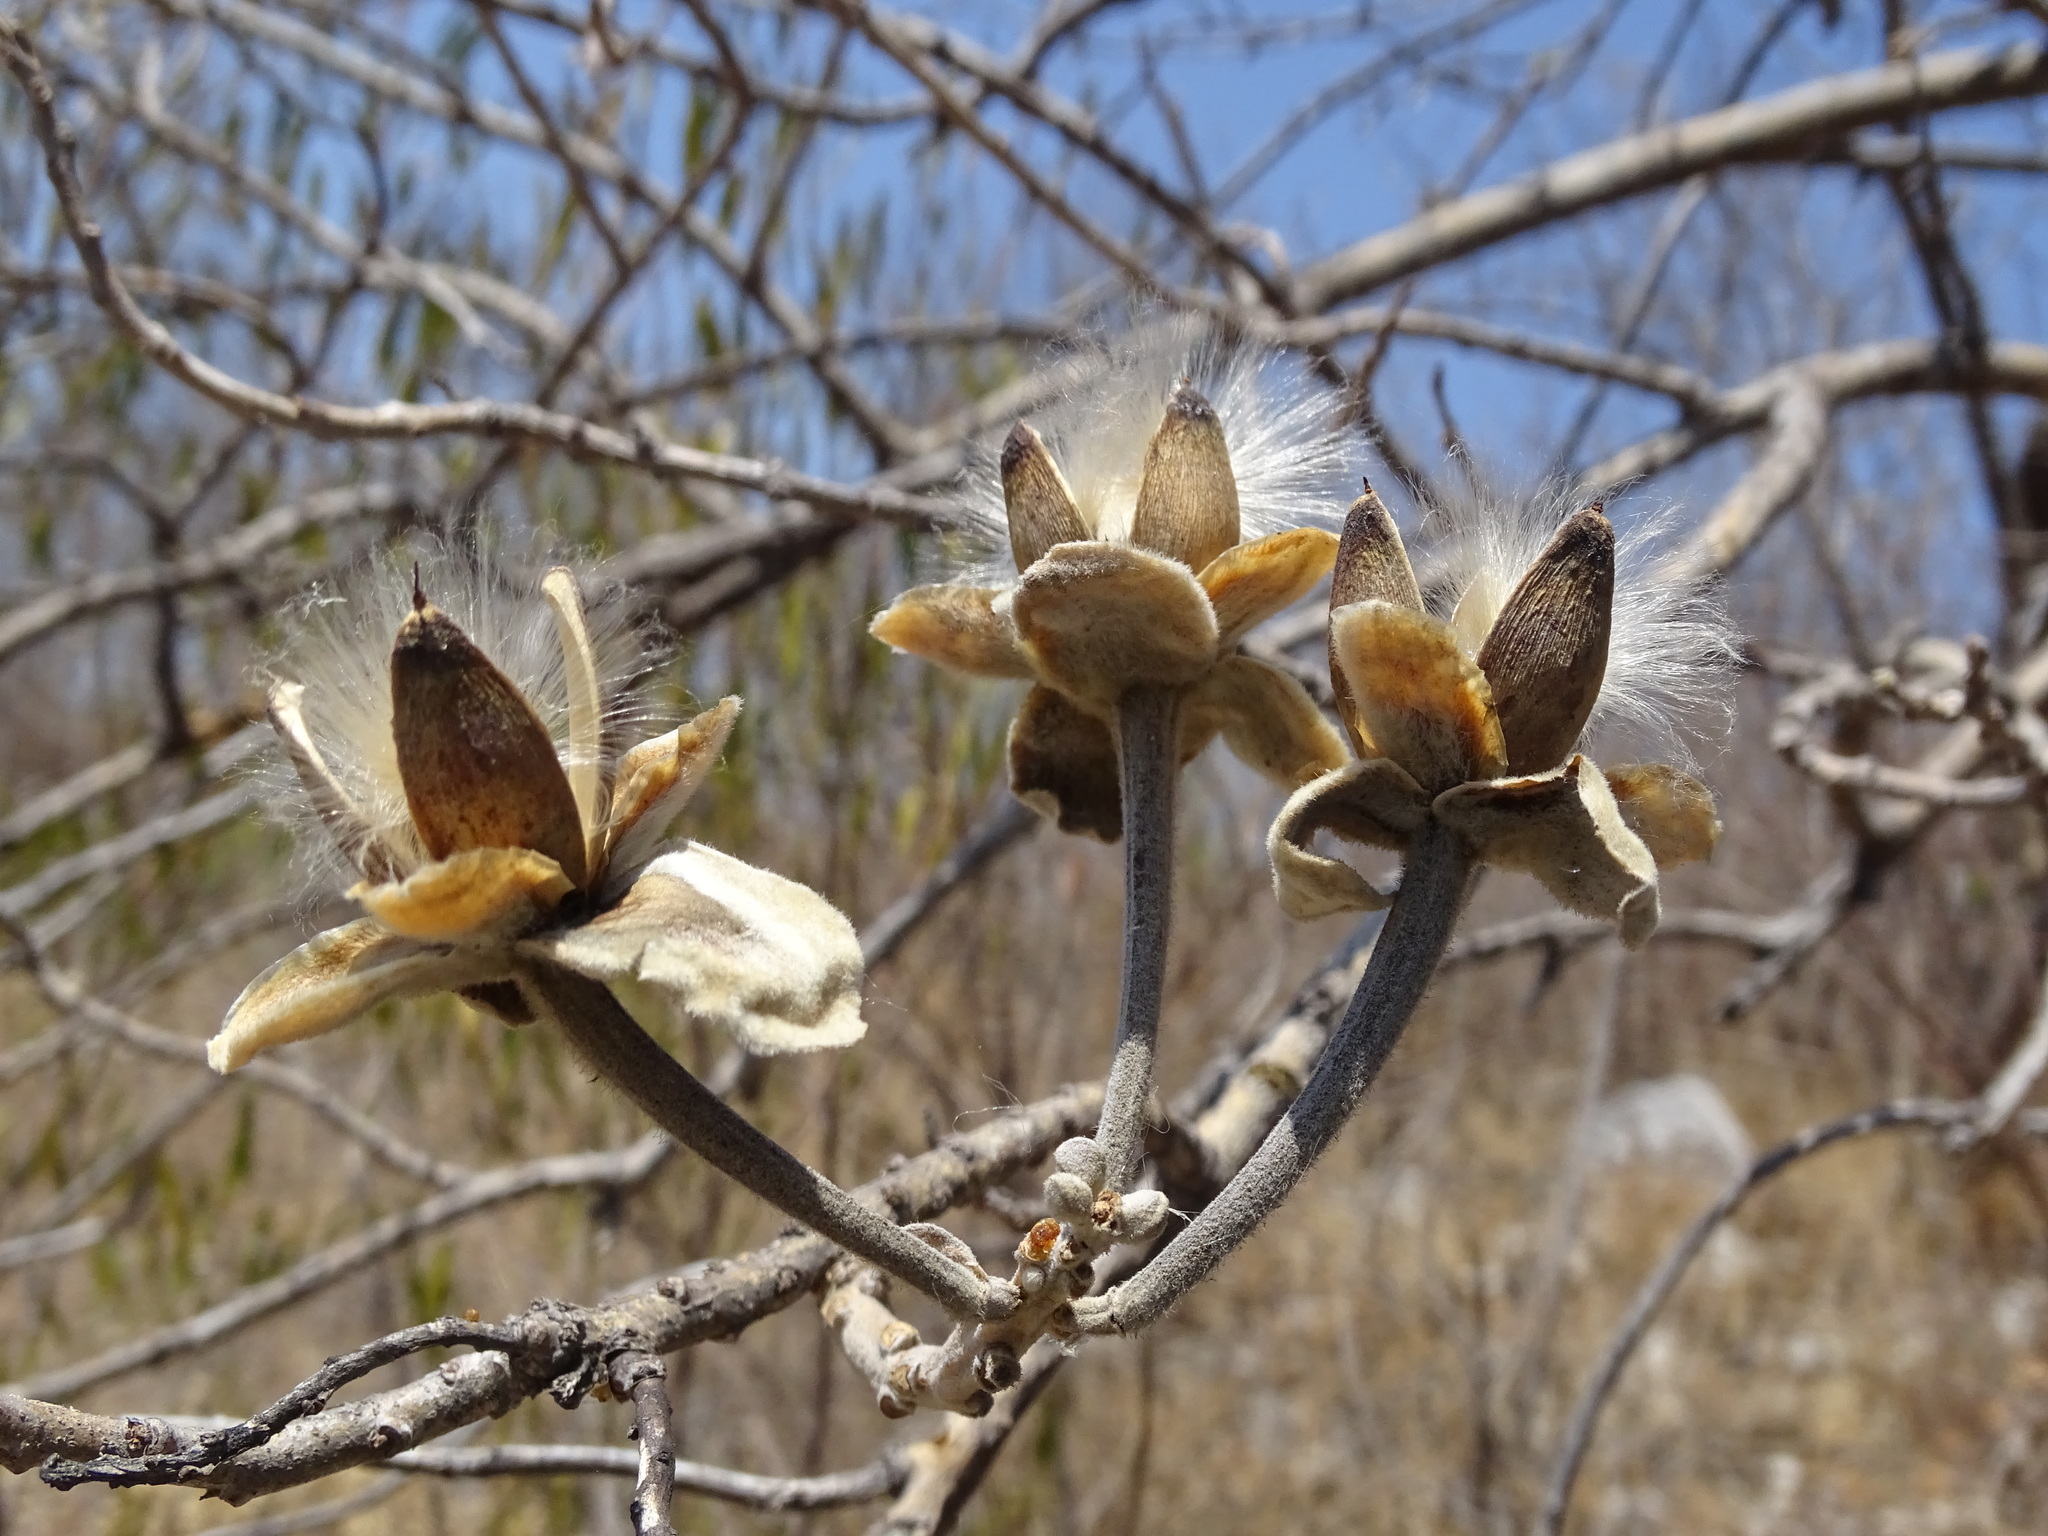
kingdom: Plantae
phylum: Tracheophyta
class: Magnoliopsida
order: Solanales
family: Convolvulaceae
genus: Ipomoea
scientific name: Ipomoea murucoides
